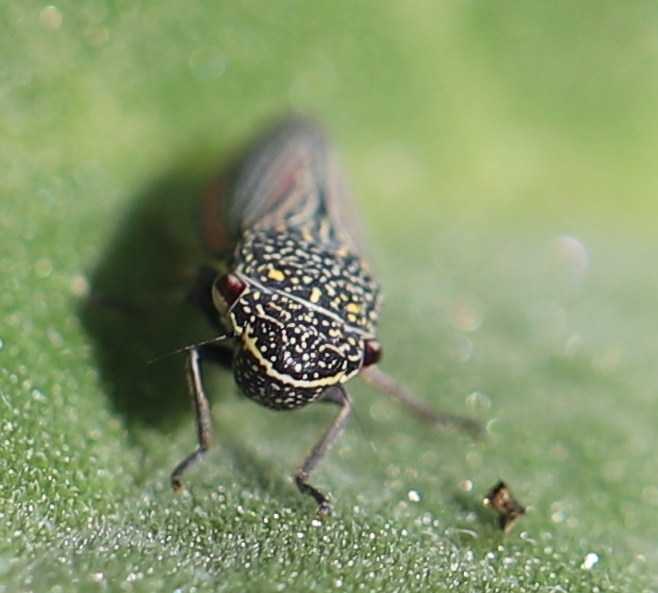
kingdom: Animalia
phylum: Arthropoda
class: Insecta
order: Hemiptera
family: Cicadellidae
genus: Cuerna
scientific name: Cuerna costalis
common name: Lateral-lined sharpshooter
